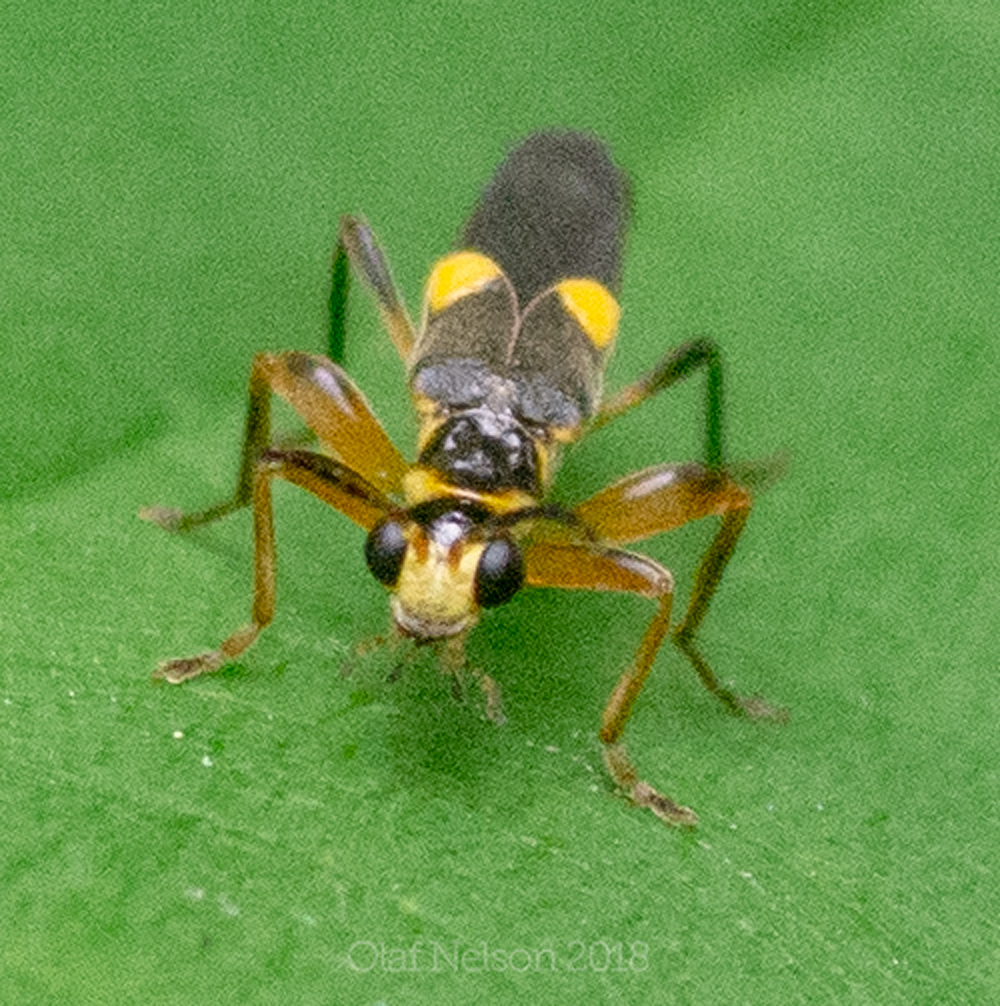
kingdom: Animalia
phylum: Arthropoda
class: Insecta
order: Coleoptera
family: Cantharidae
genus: Trypherus
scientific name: Trypherus frisoni
